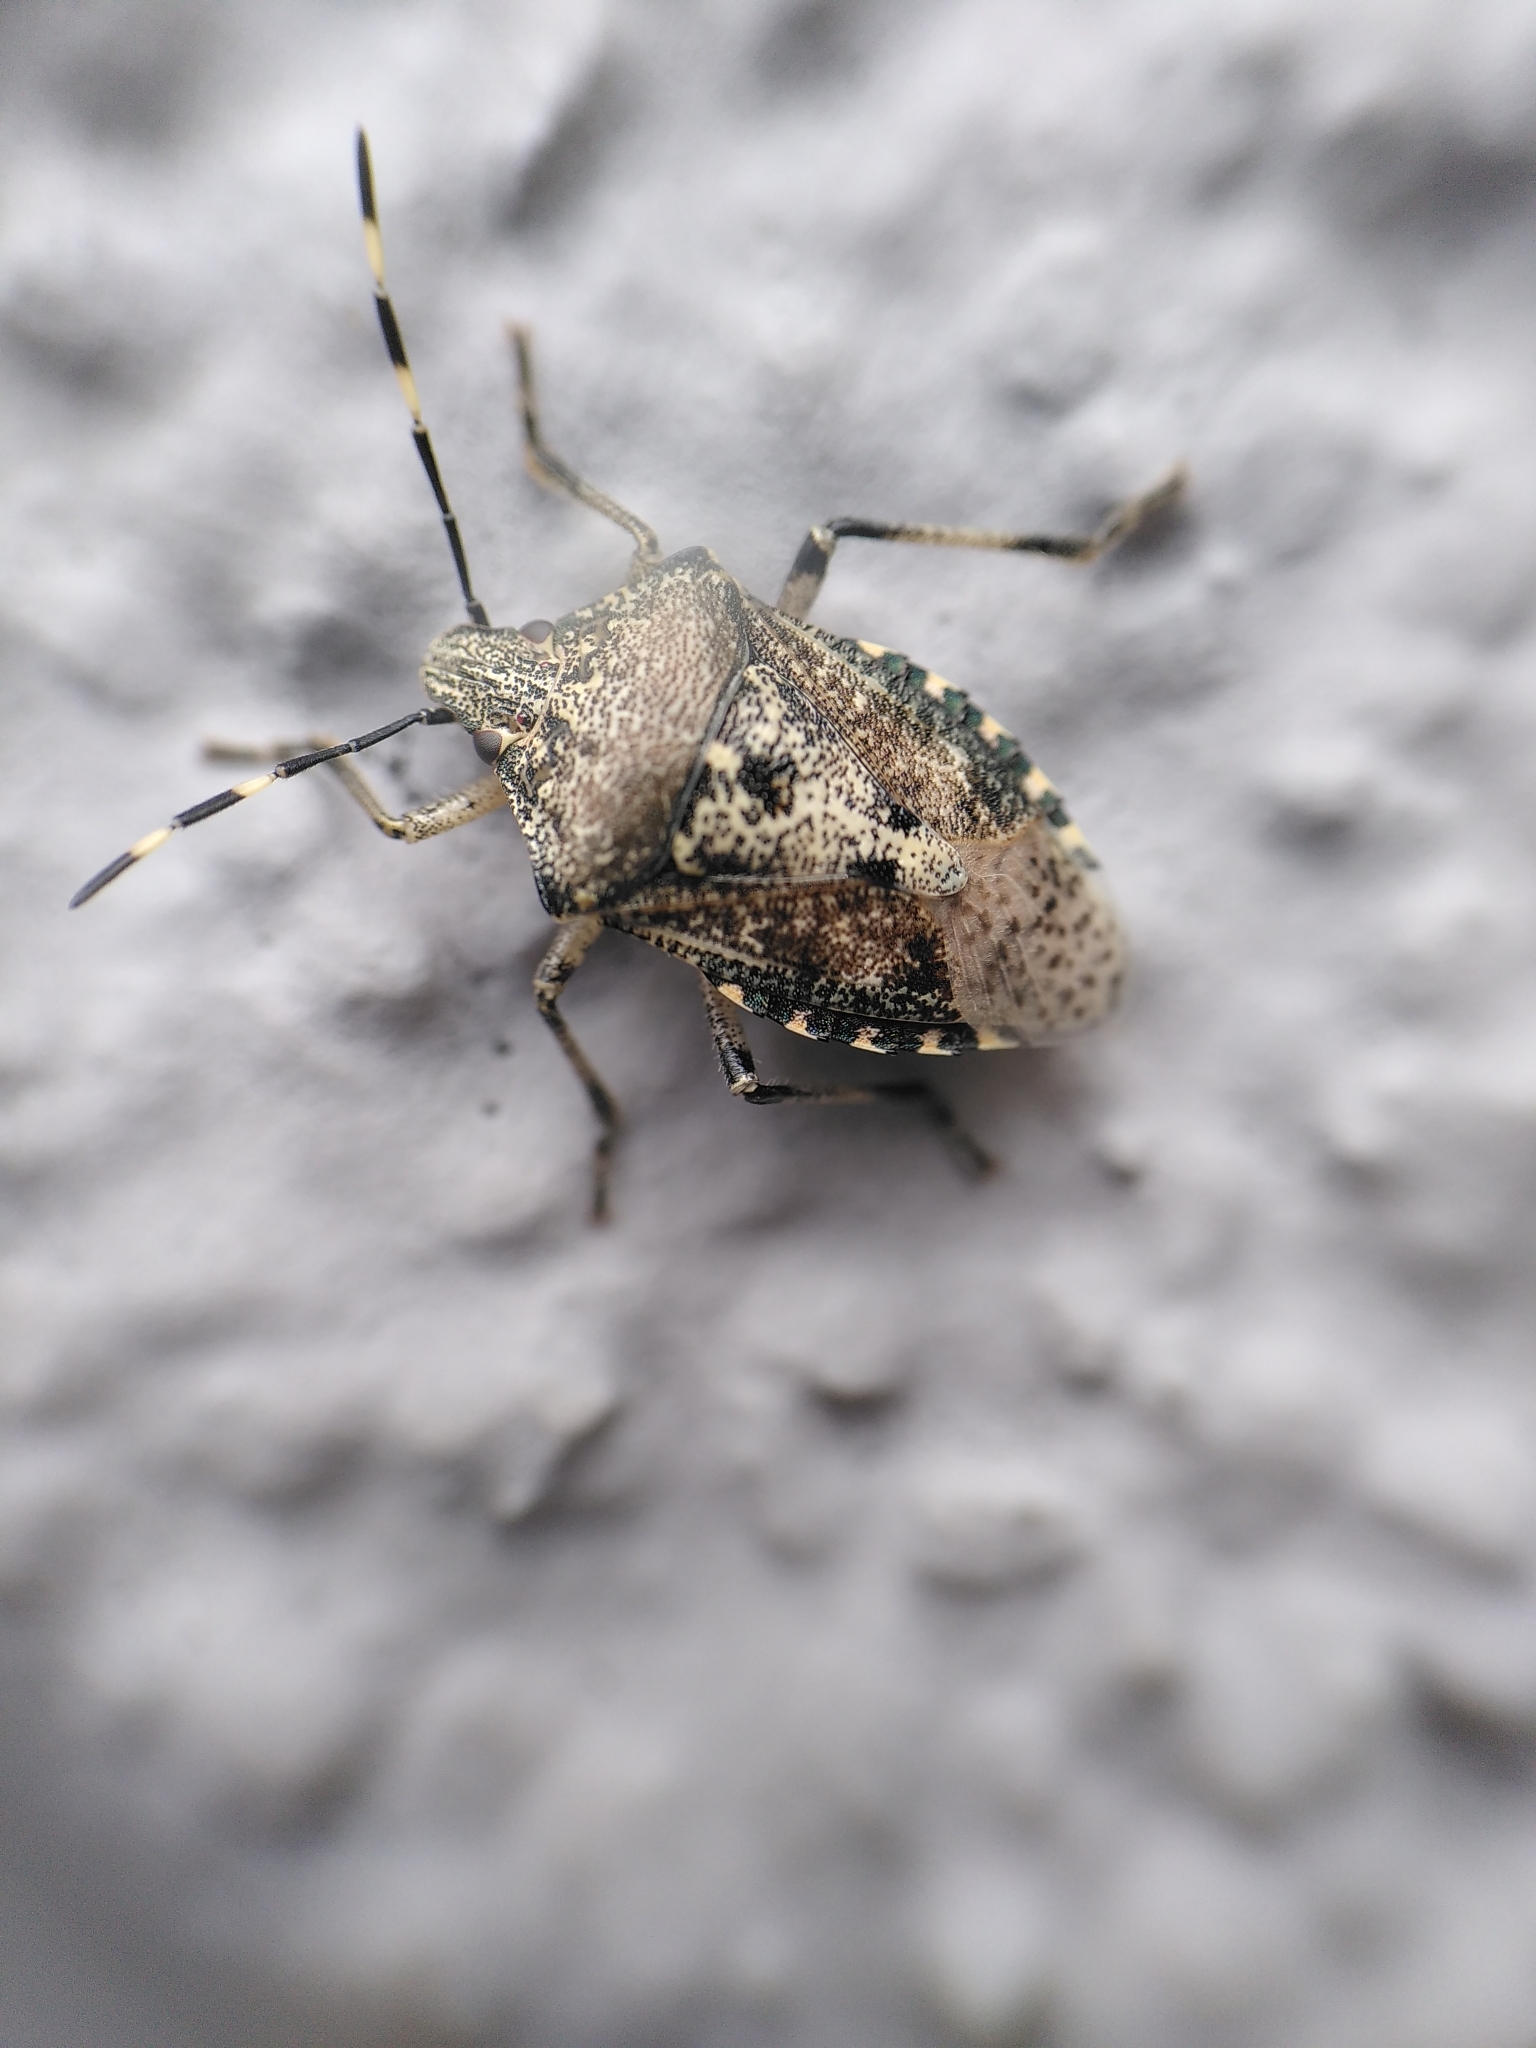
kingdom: Animalia
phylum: Arthropoda
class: Insecta
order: Hemiptera
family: Pentatomidae
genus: Rhaphigaster
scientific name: Rhaphigaster nebulosa
